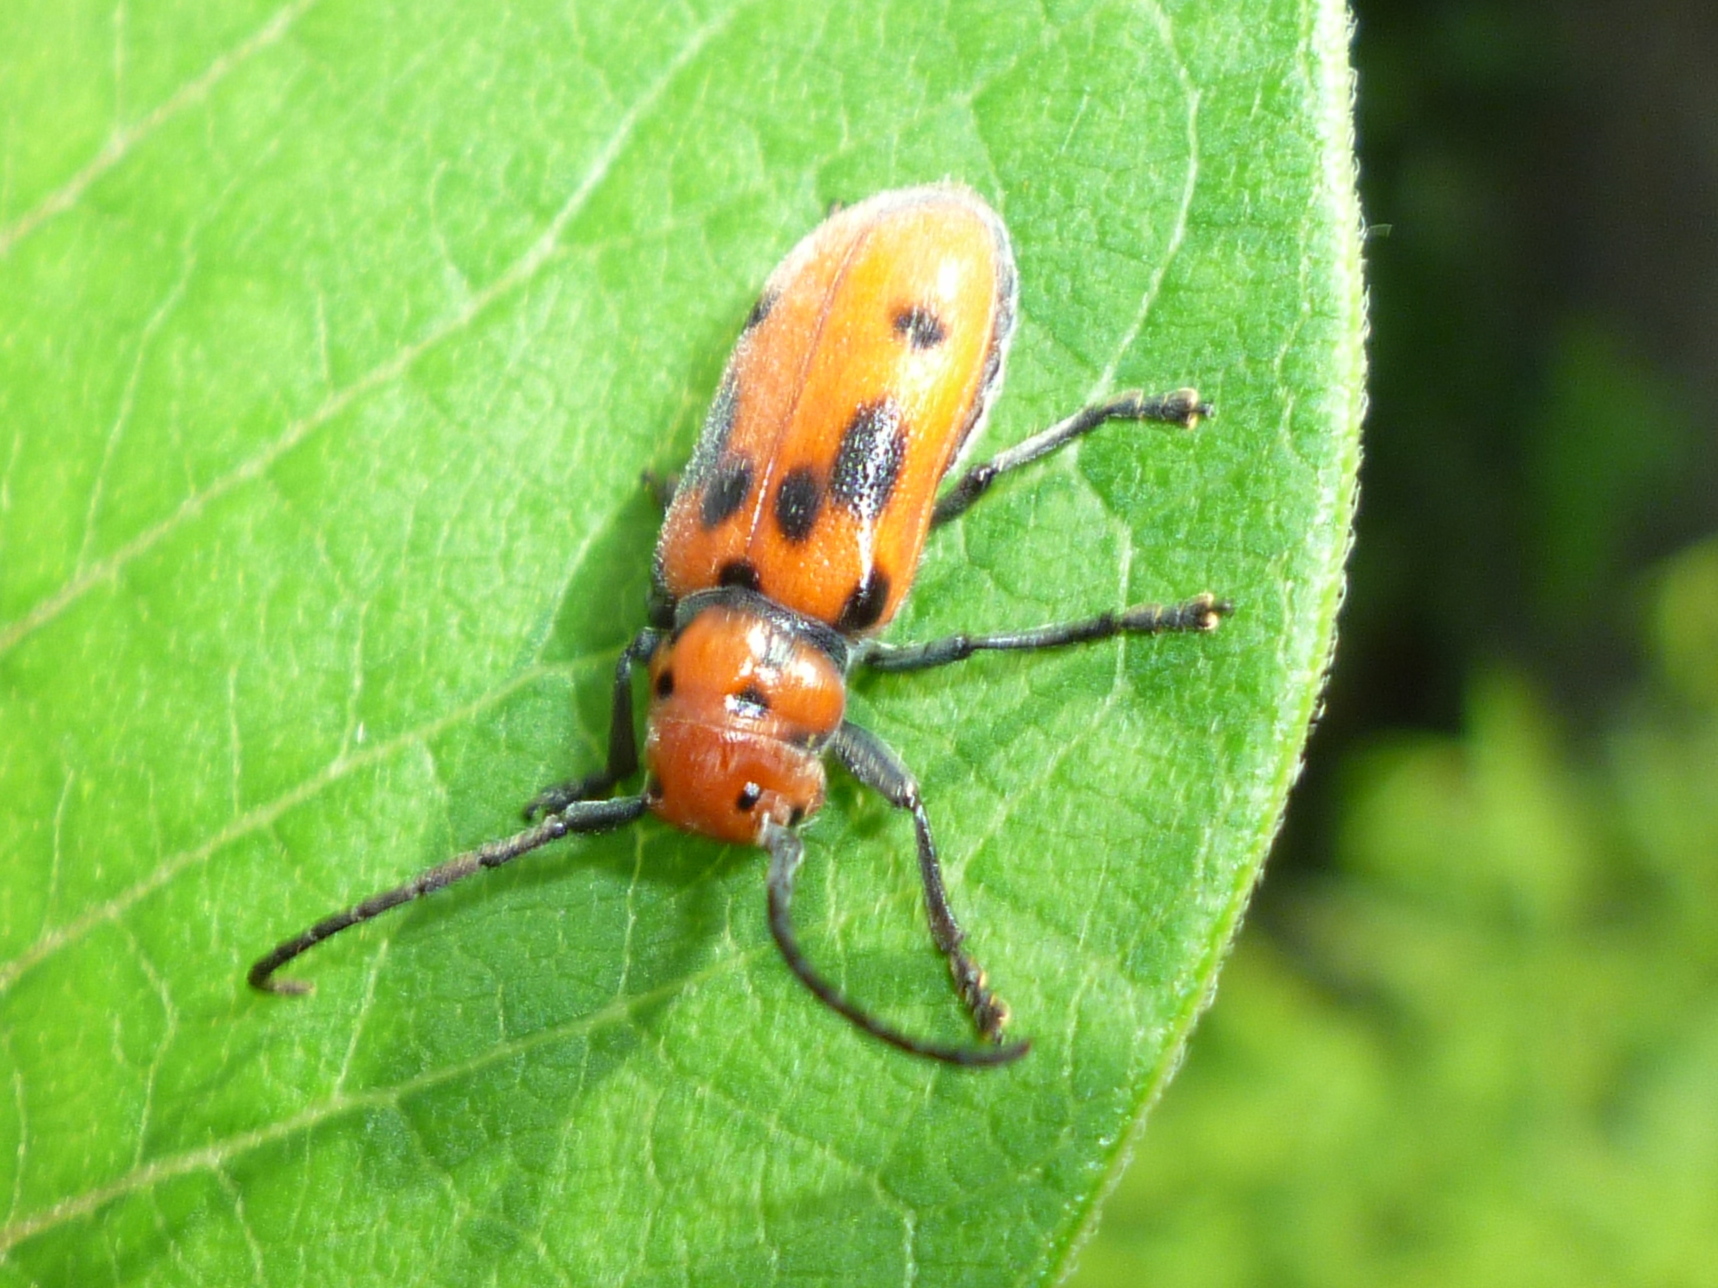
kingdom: Animalia
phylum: Arthropoda
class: Insecta
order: Coleoptera
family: Cerambycidae
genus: Tetraopes
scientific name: Tetraopes tetrophthalmus
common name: Red milkweed beetle
